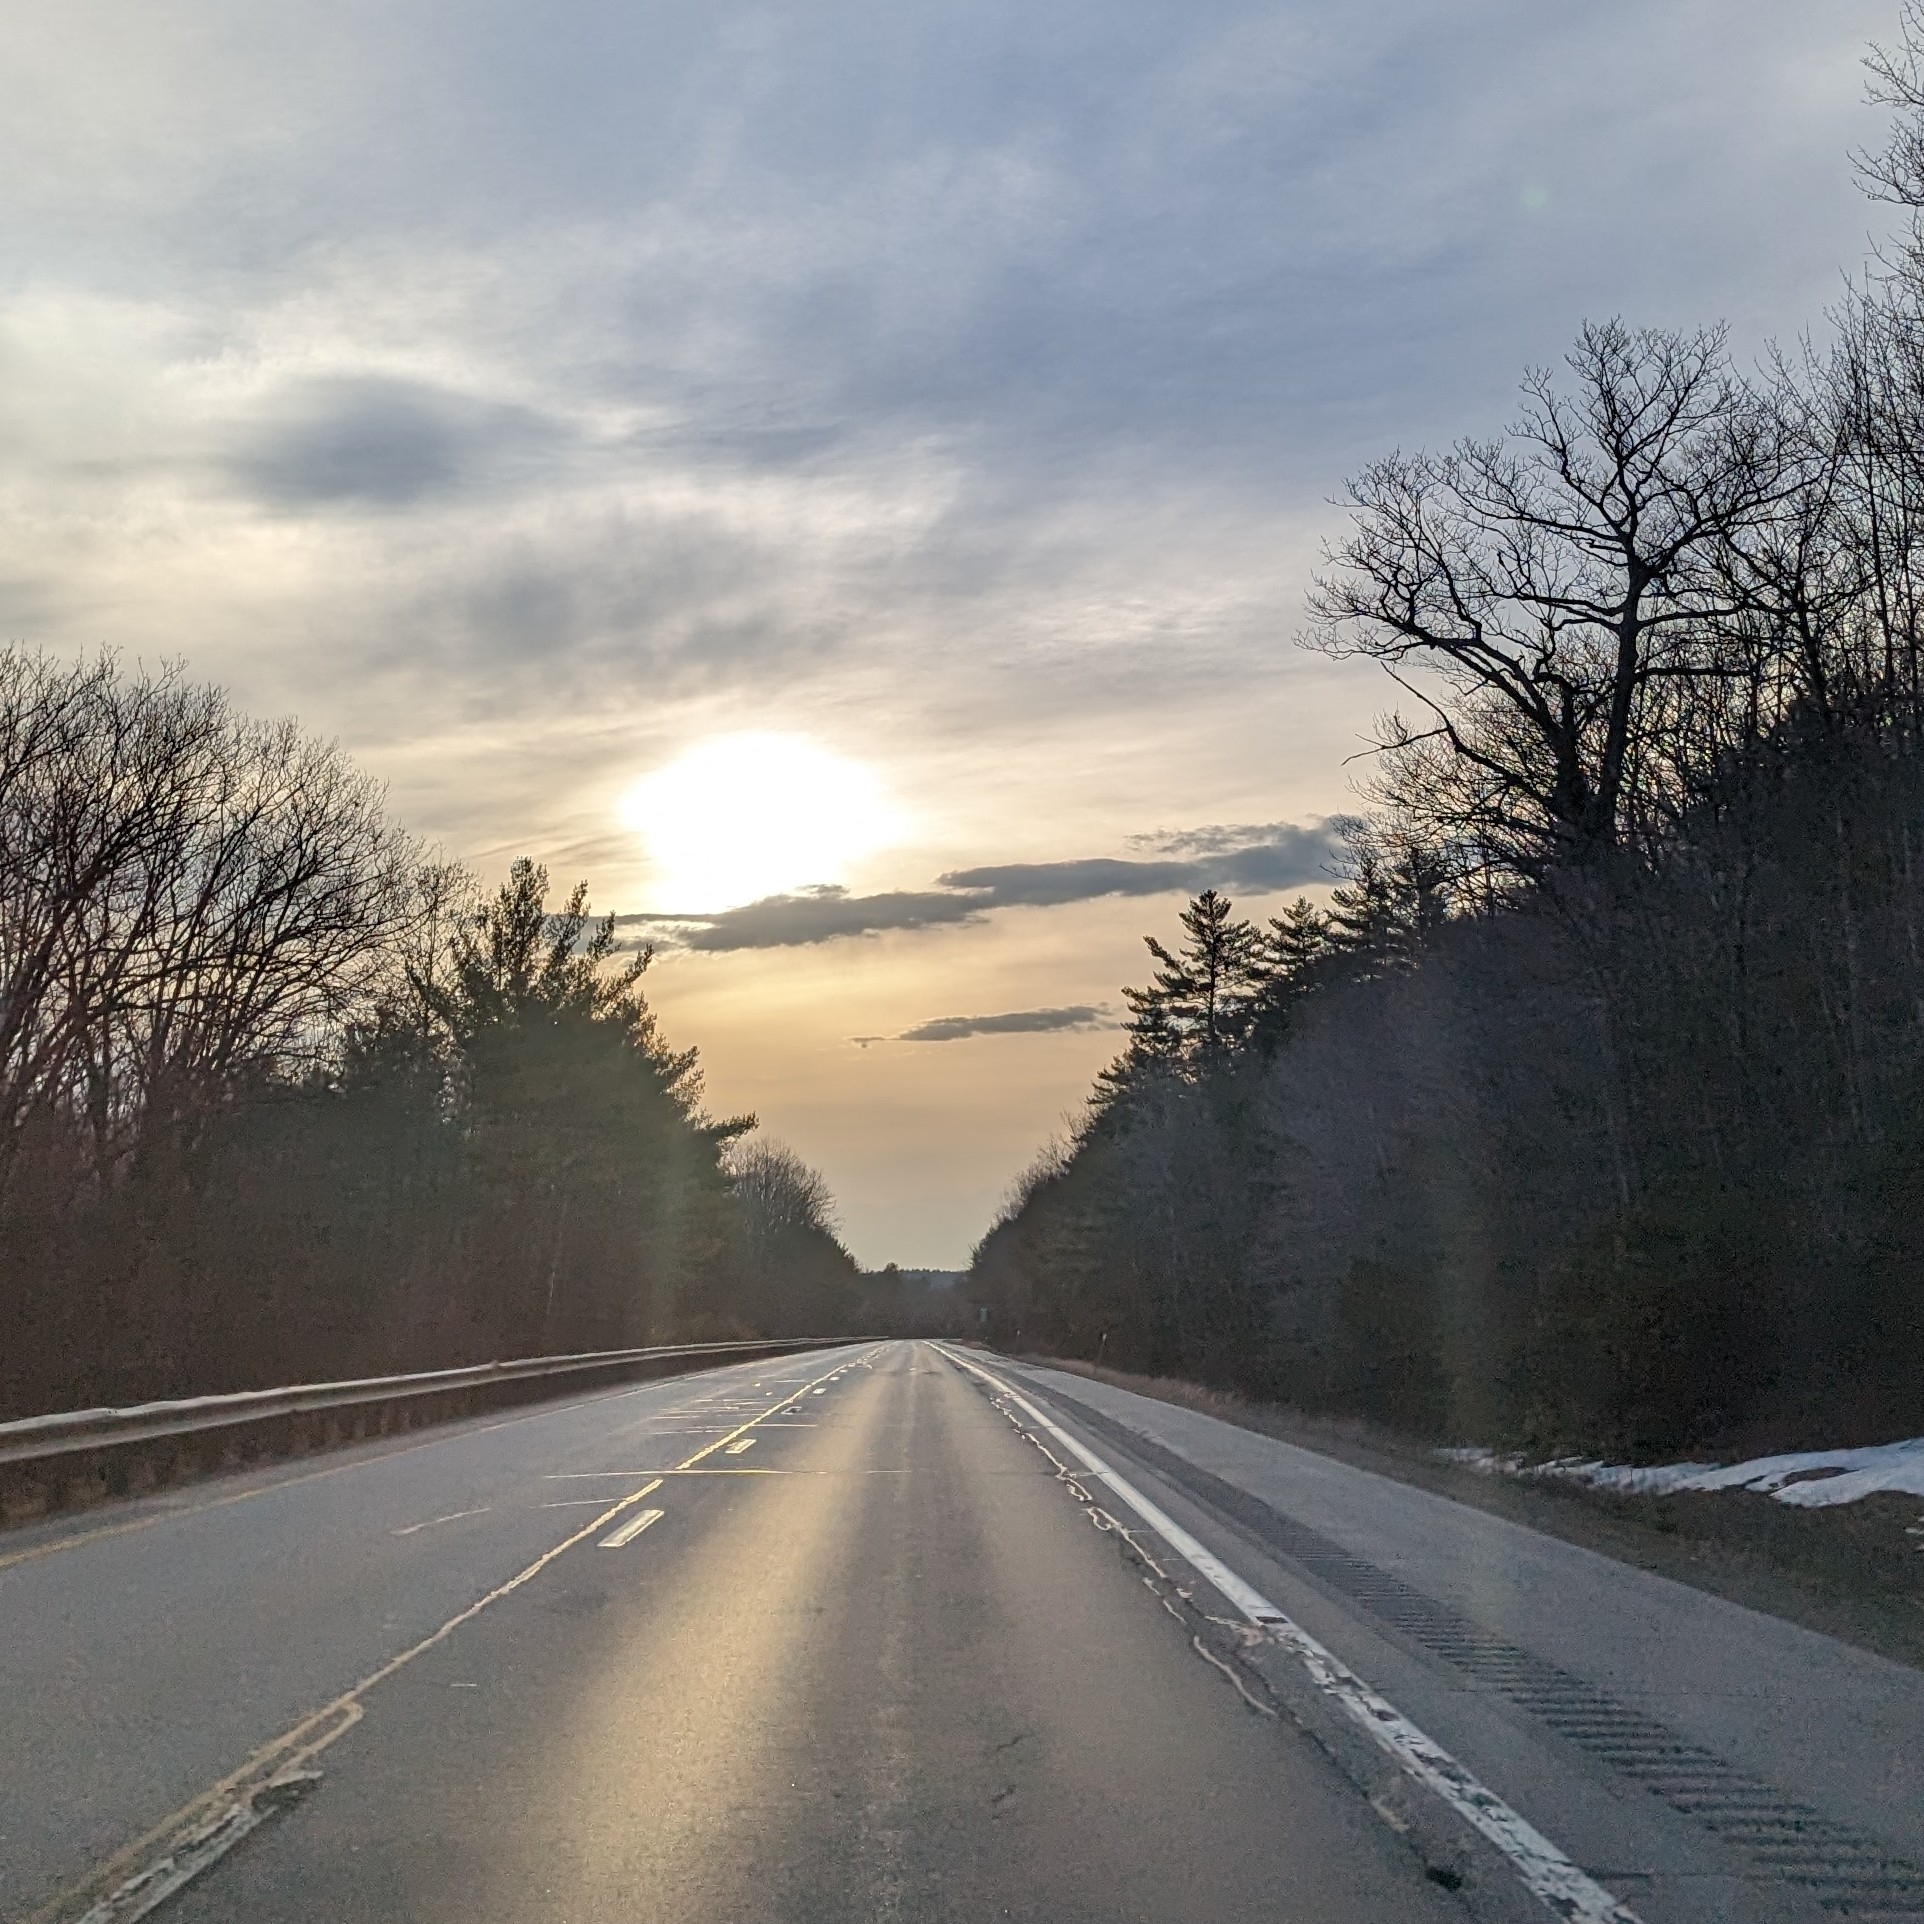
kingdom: Plantae
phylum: Tracheophyta
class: Pinopsida
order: Pinales
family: Pinaceae
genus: Pinus
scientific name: Pinus strobus
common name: Weymouth pine
